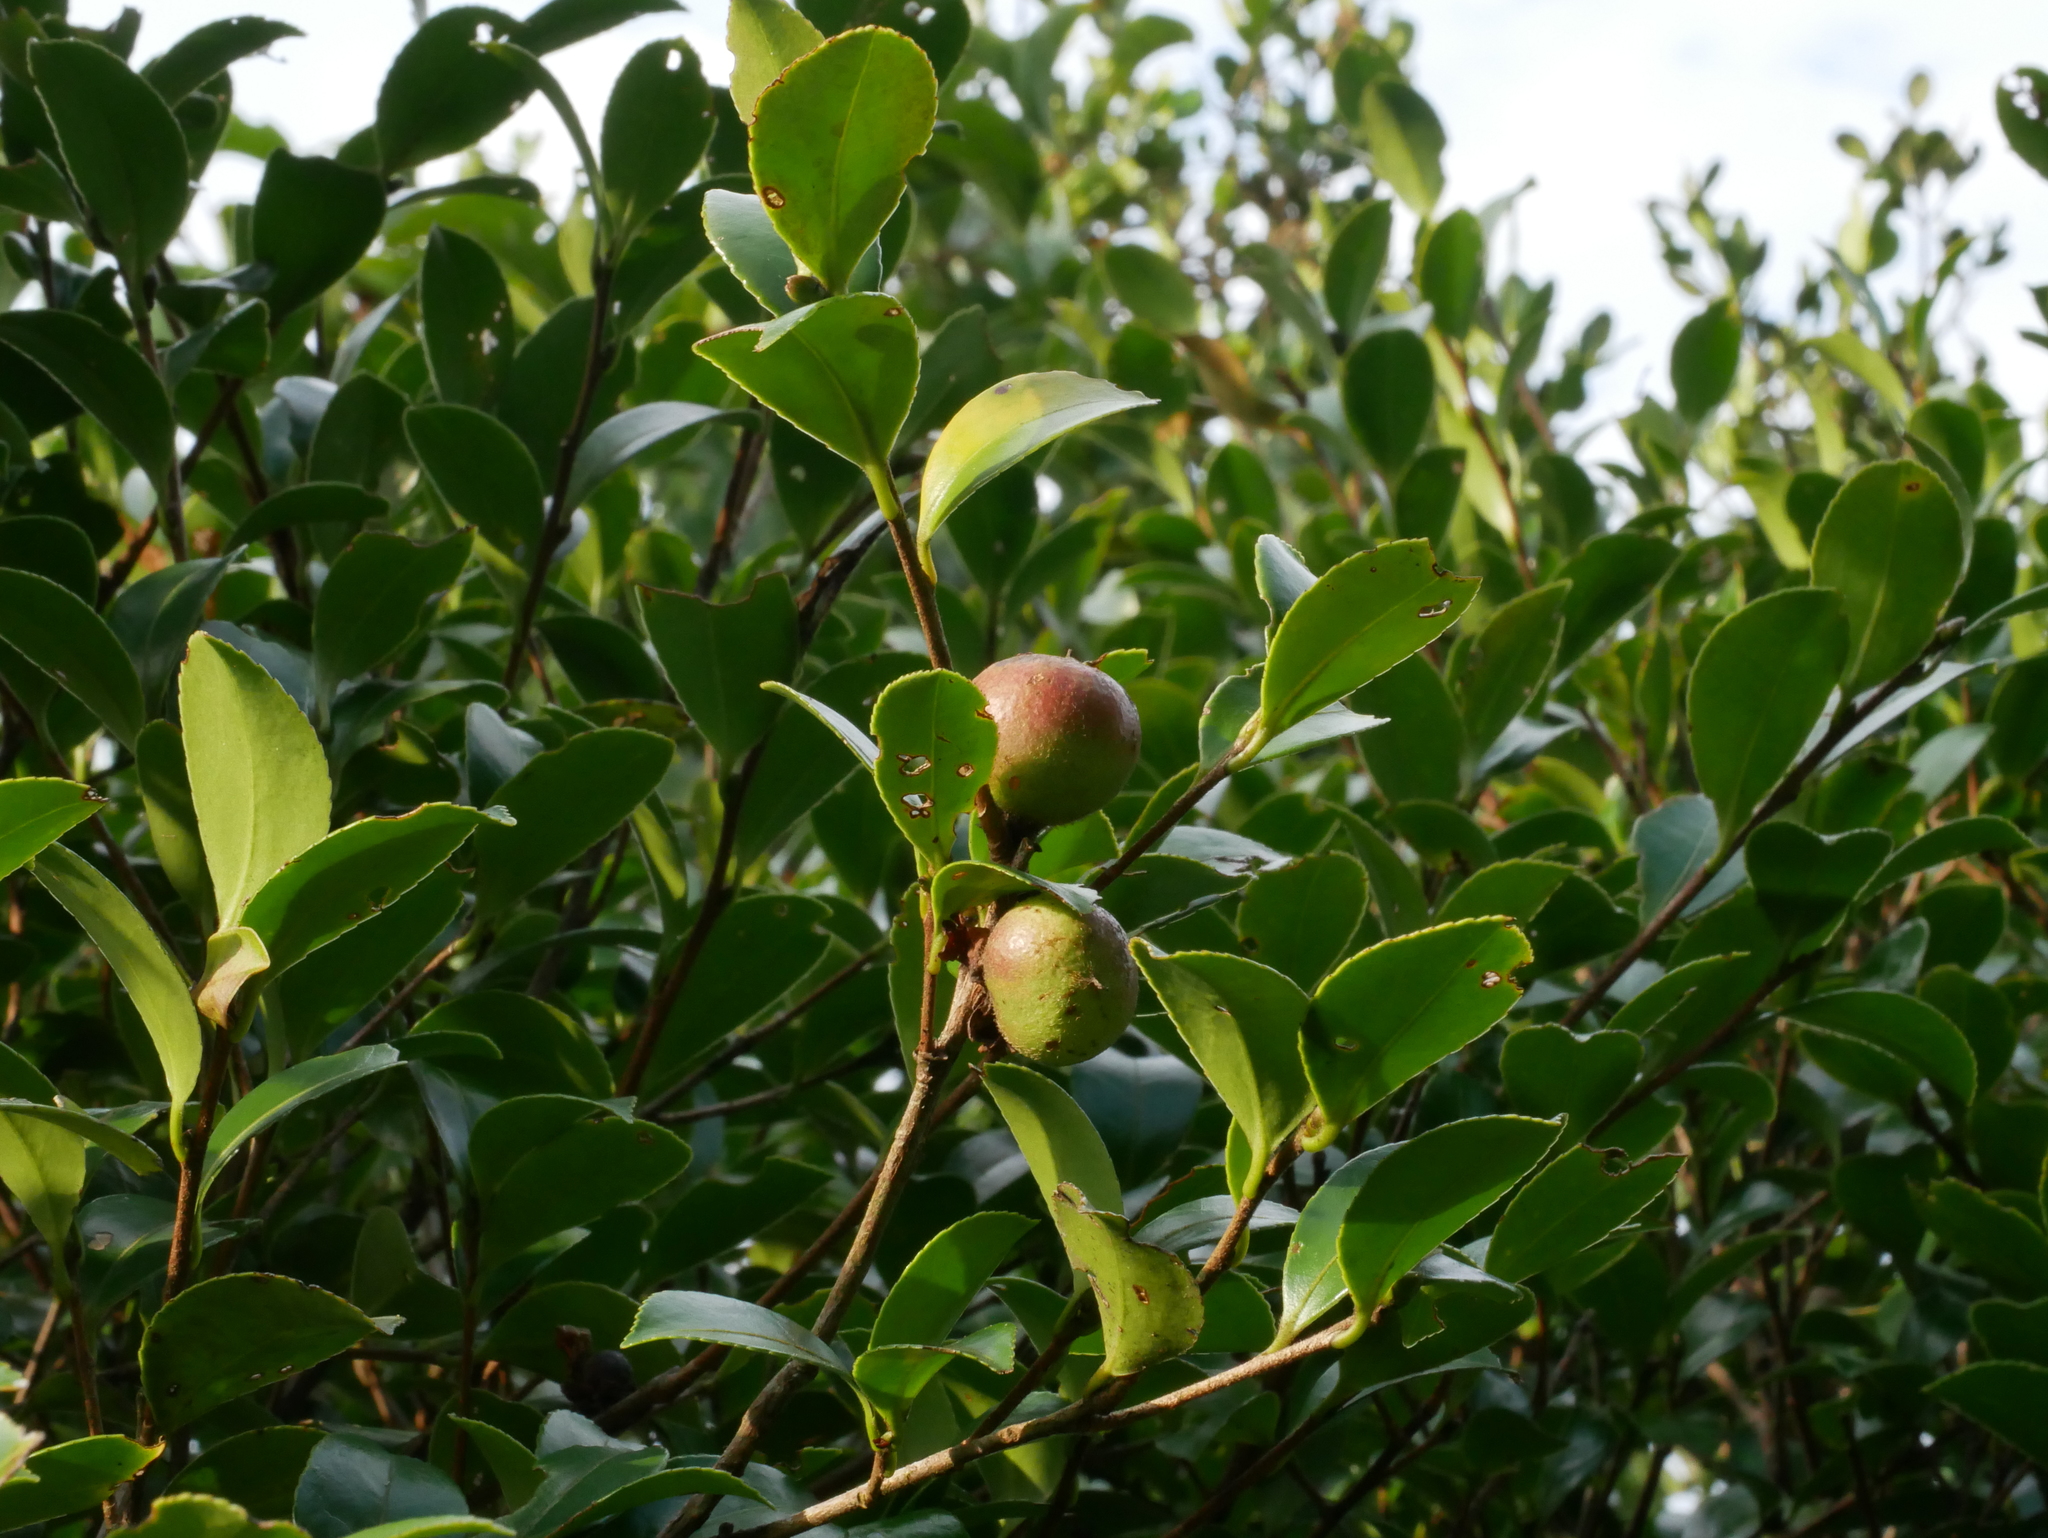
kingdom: Plantae
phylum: Tracheophyta
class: Magnoliopsida
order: Ericales
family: Theaceae
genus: Camellia
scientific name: Camellia brevistyla
